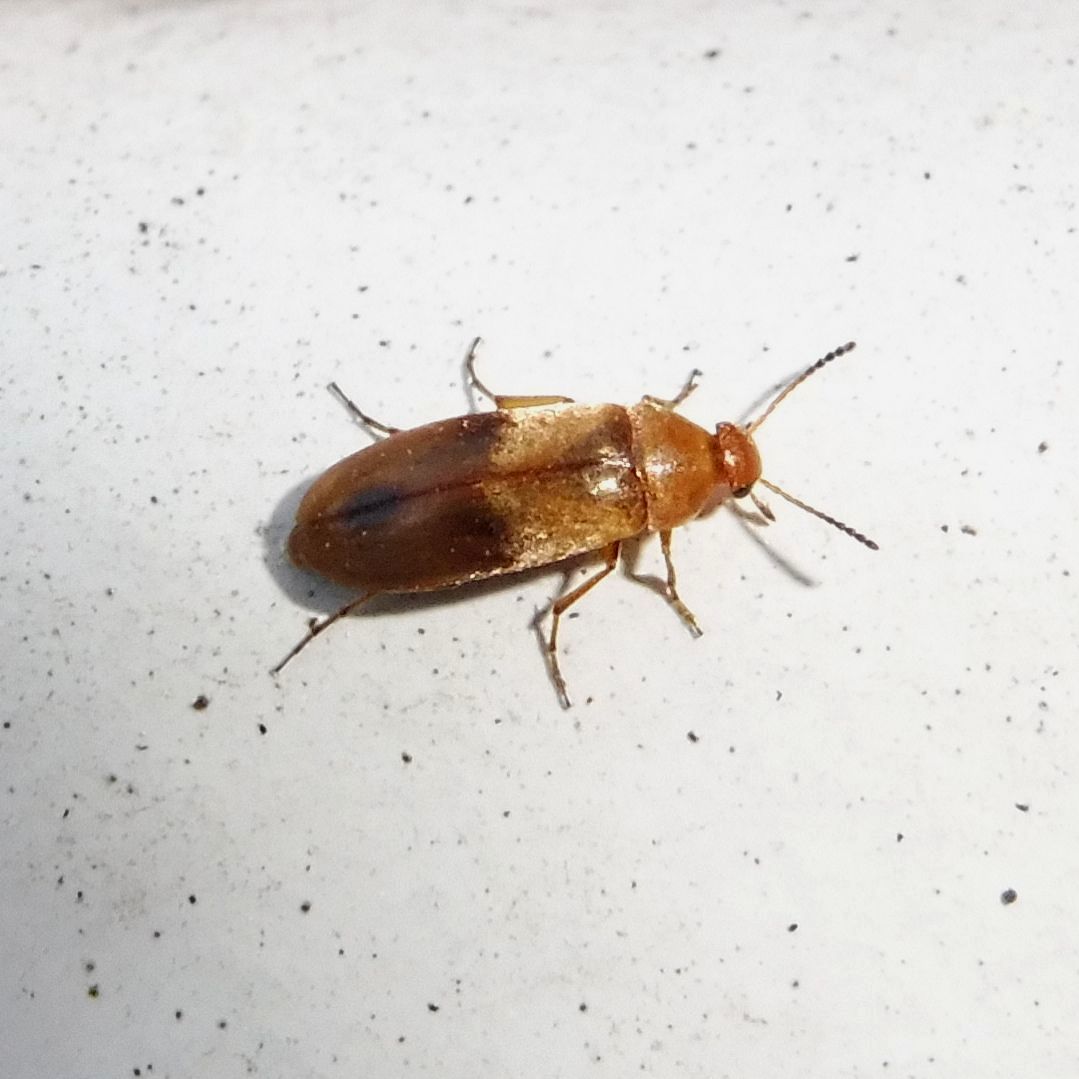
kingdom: Animalia
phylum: Arthropoda
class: Insecta
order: Coleoptera
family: Scraptiidae
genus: Anaspis
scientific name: Anaspis maculata
